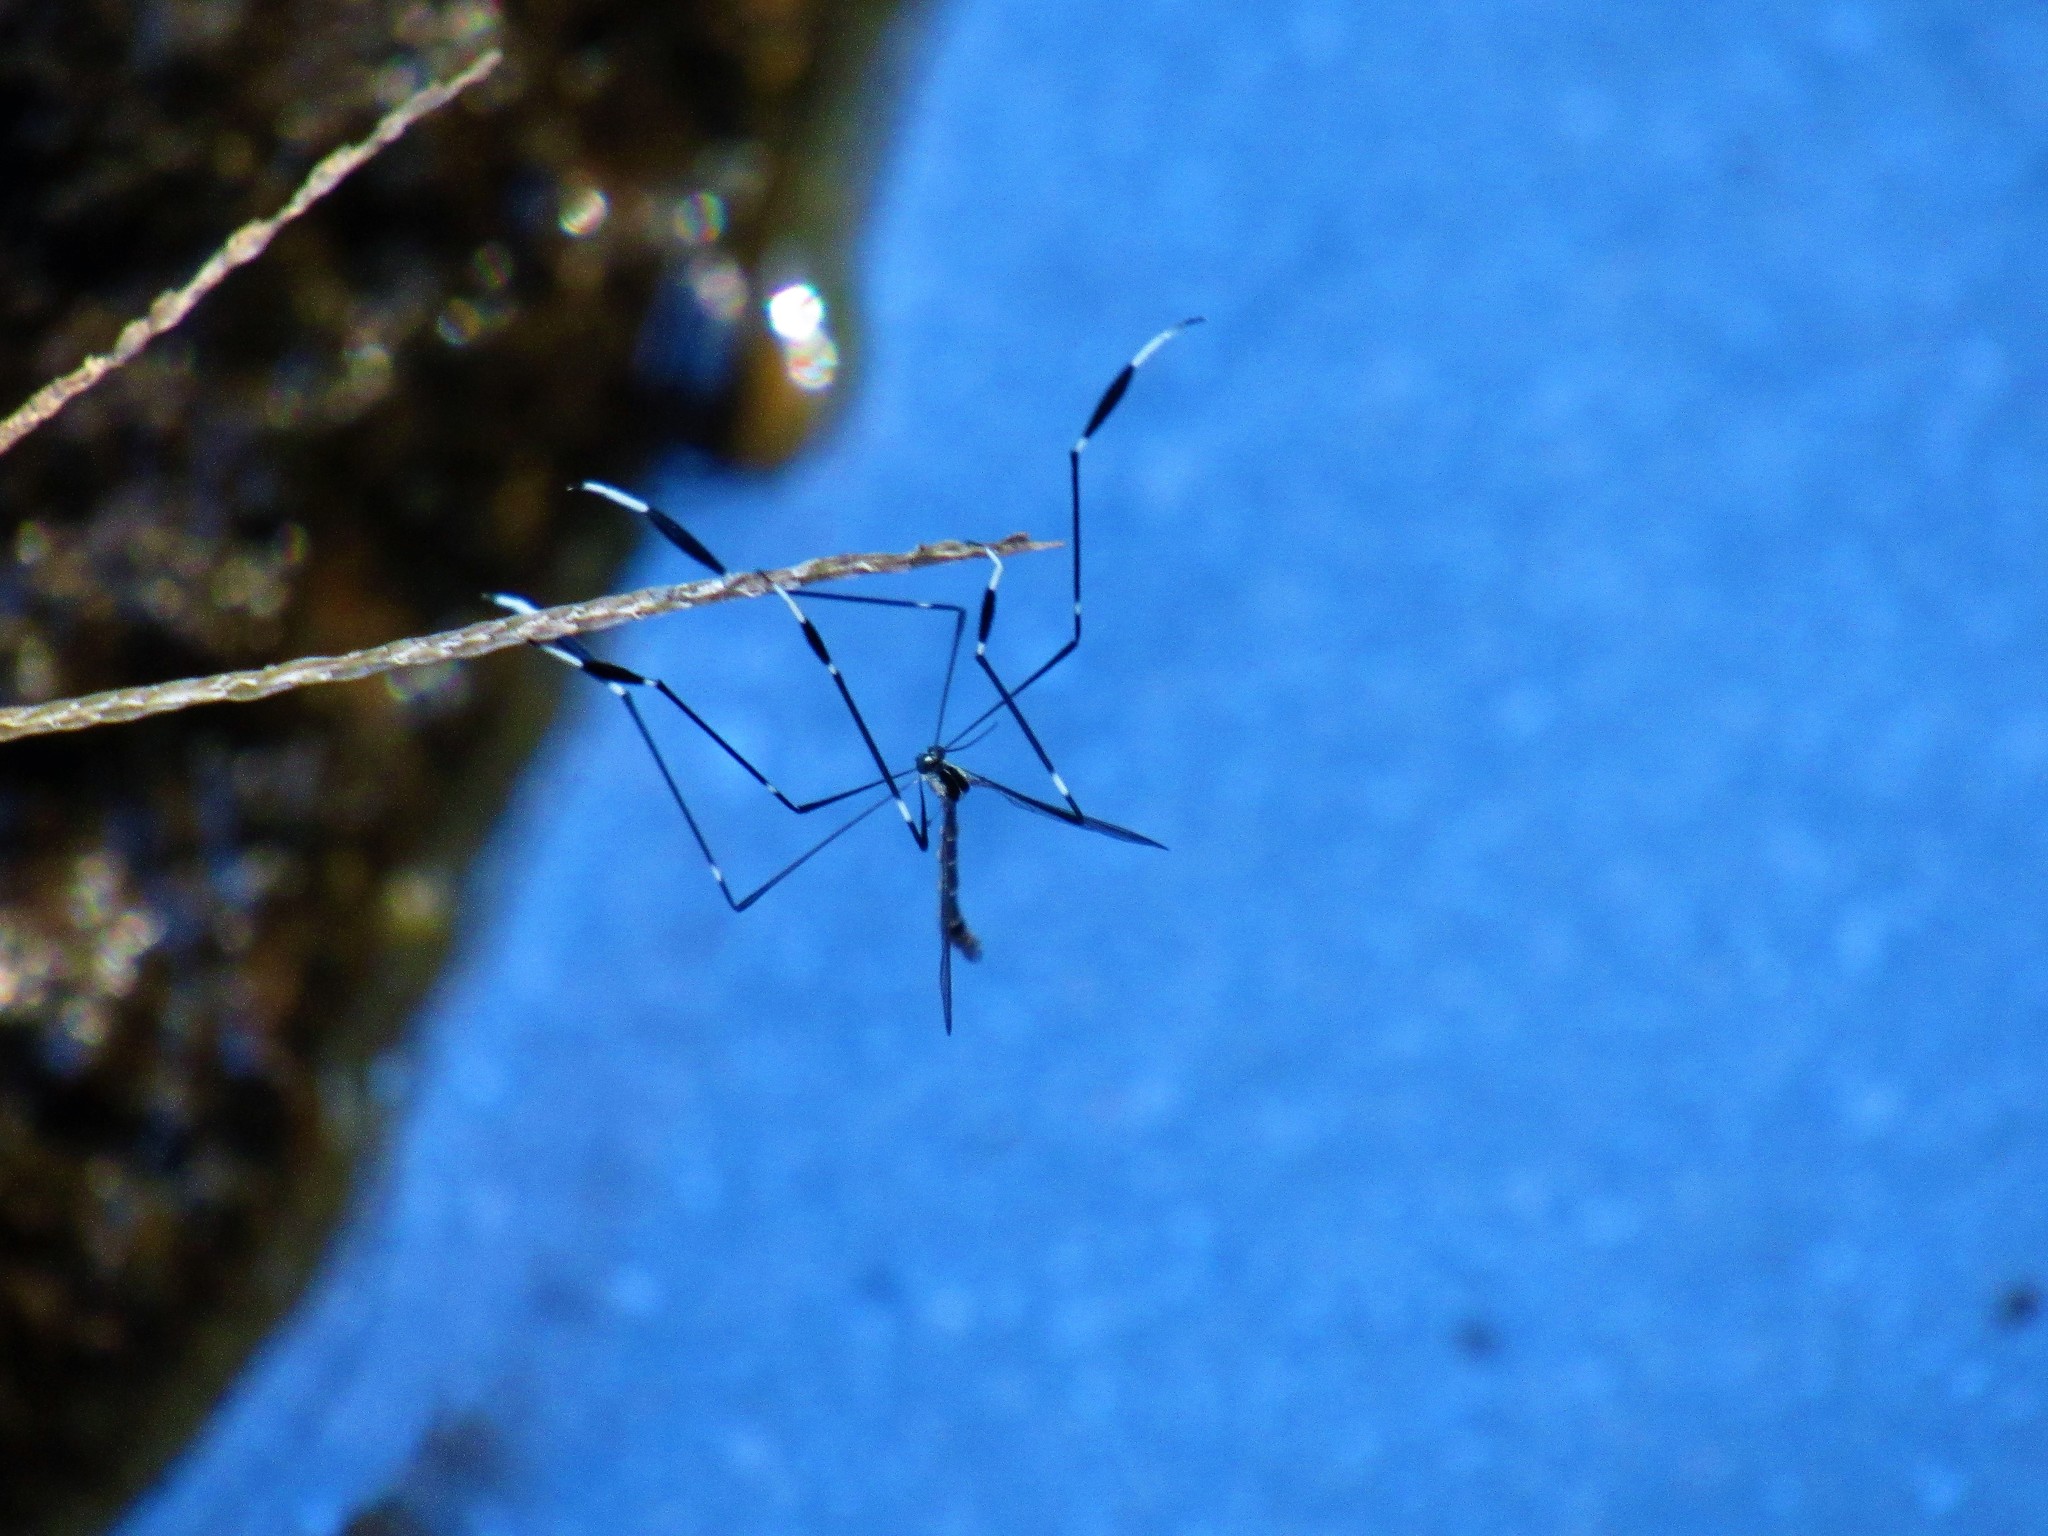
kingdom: Animalia
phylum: Arthropoda
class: Insecta
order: Diptera
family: Ptychopteridae
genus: Bittacomorpha
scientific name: Bittacomorpha clavipes
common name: Eastern phantom crane fly
